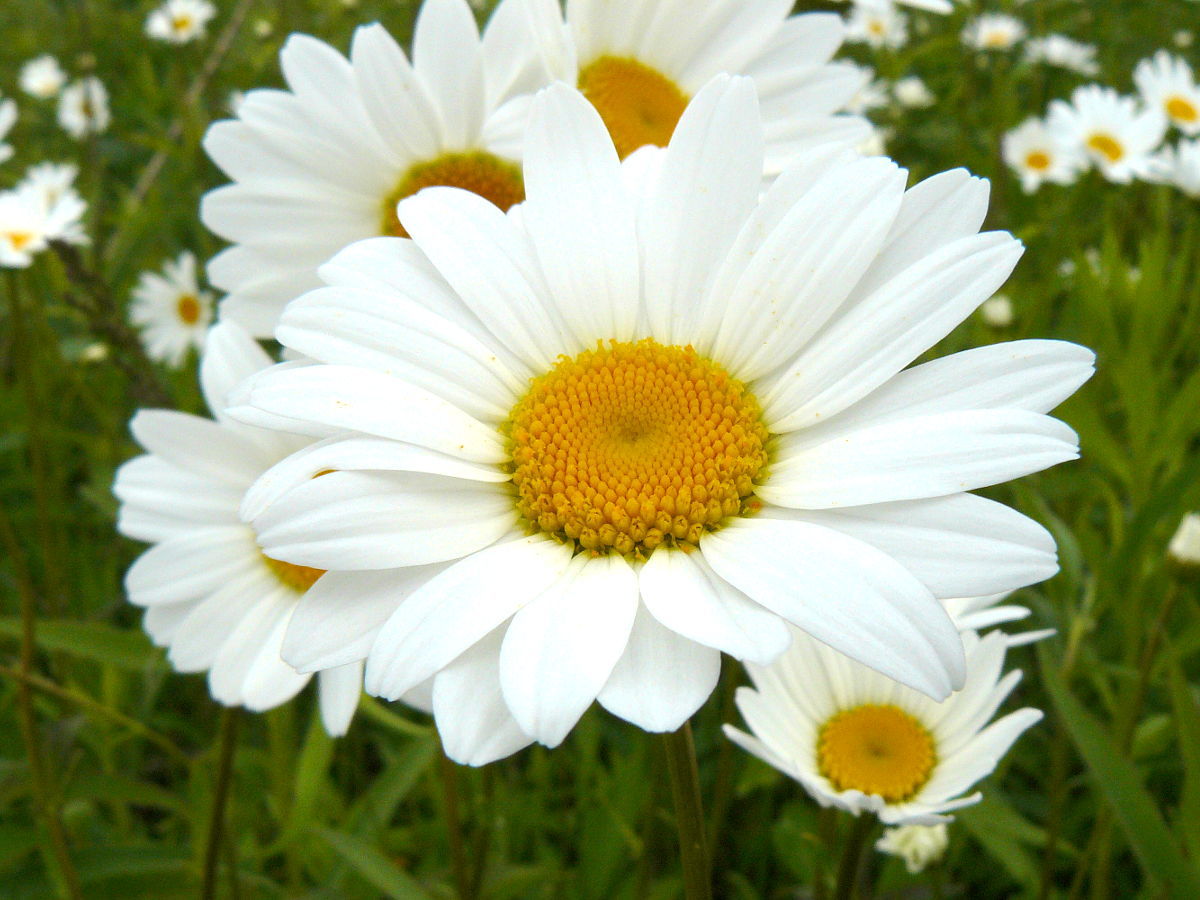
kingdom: Plantae
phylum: Tracheophyta
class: Magnoliopsida
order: Asterales
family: Asteraceae
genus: Leucanthemum
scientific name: Leucanthemum vulgare
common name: Oxeye daisy
